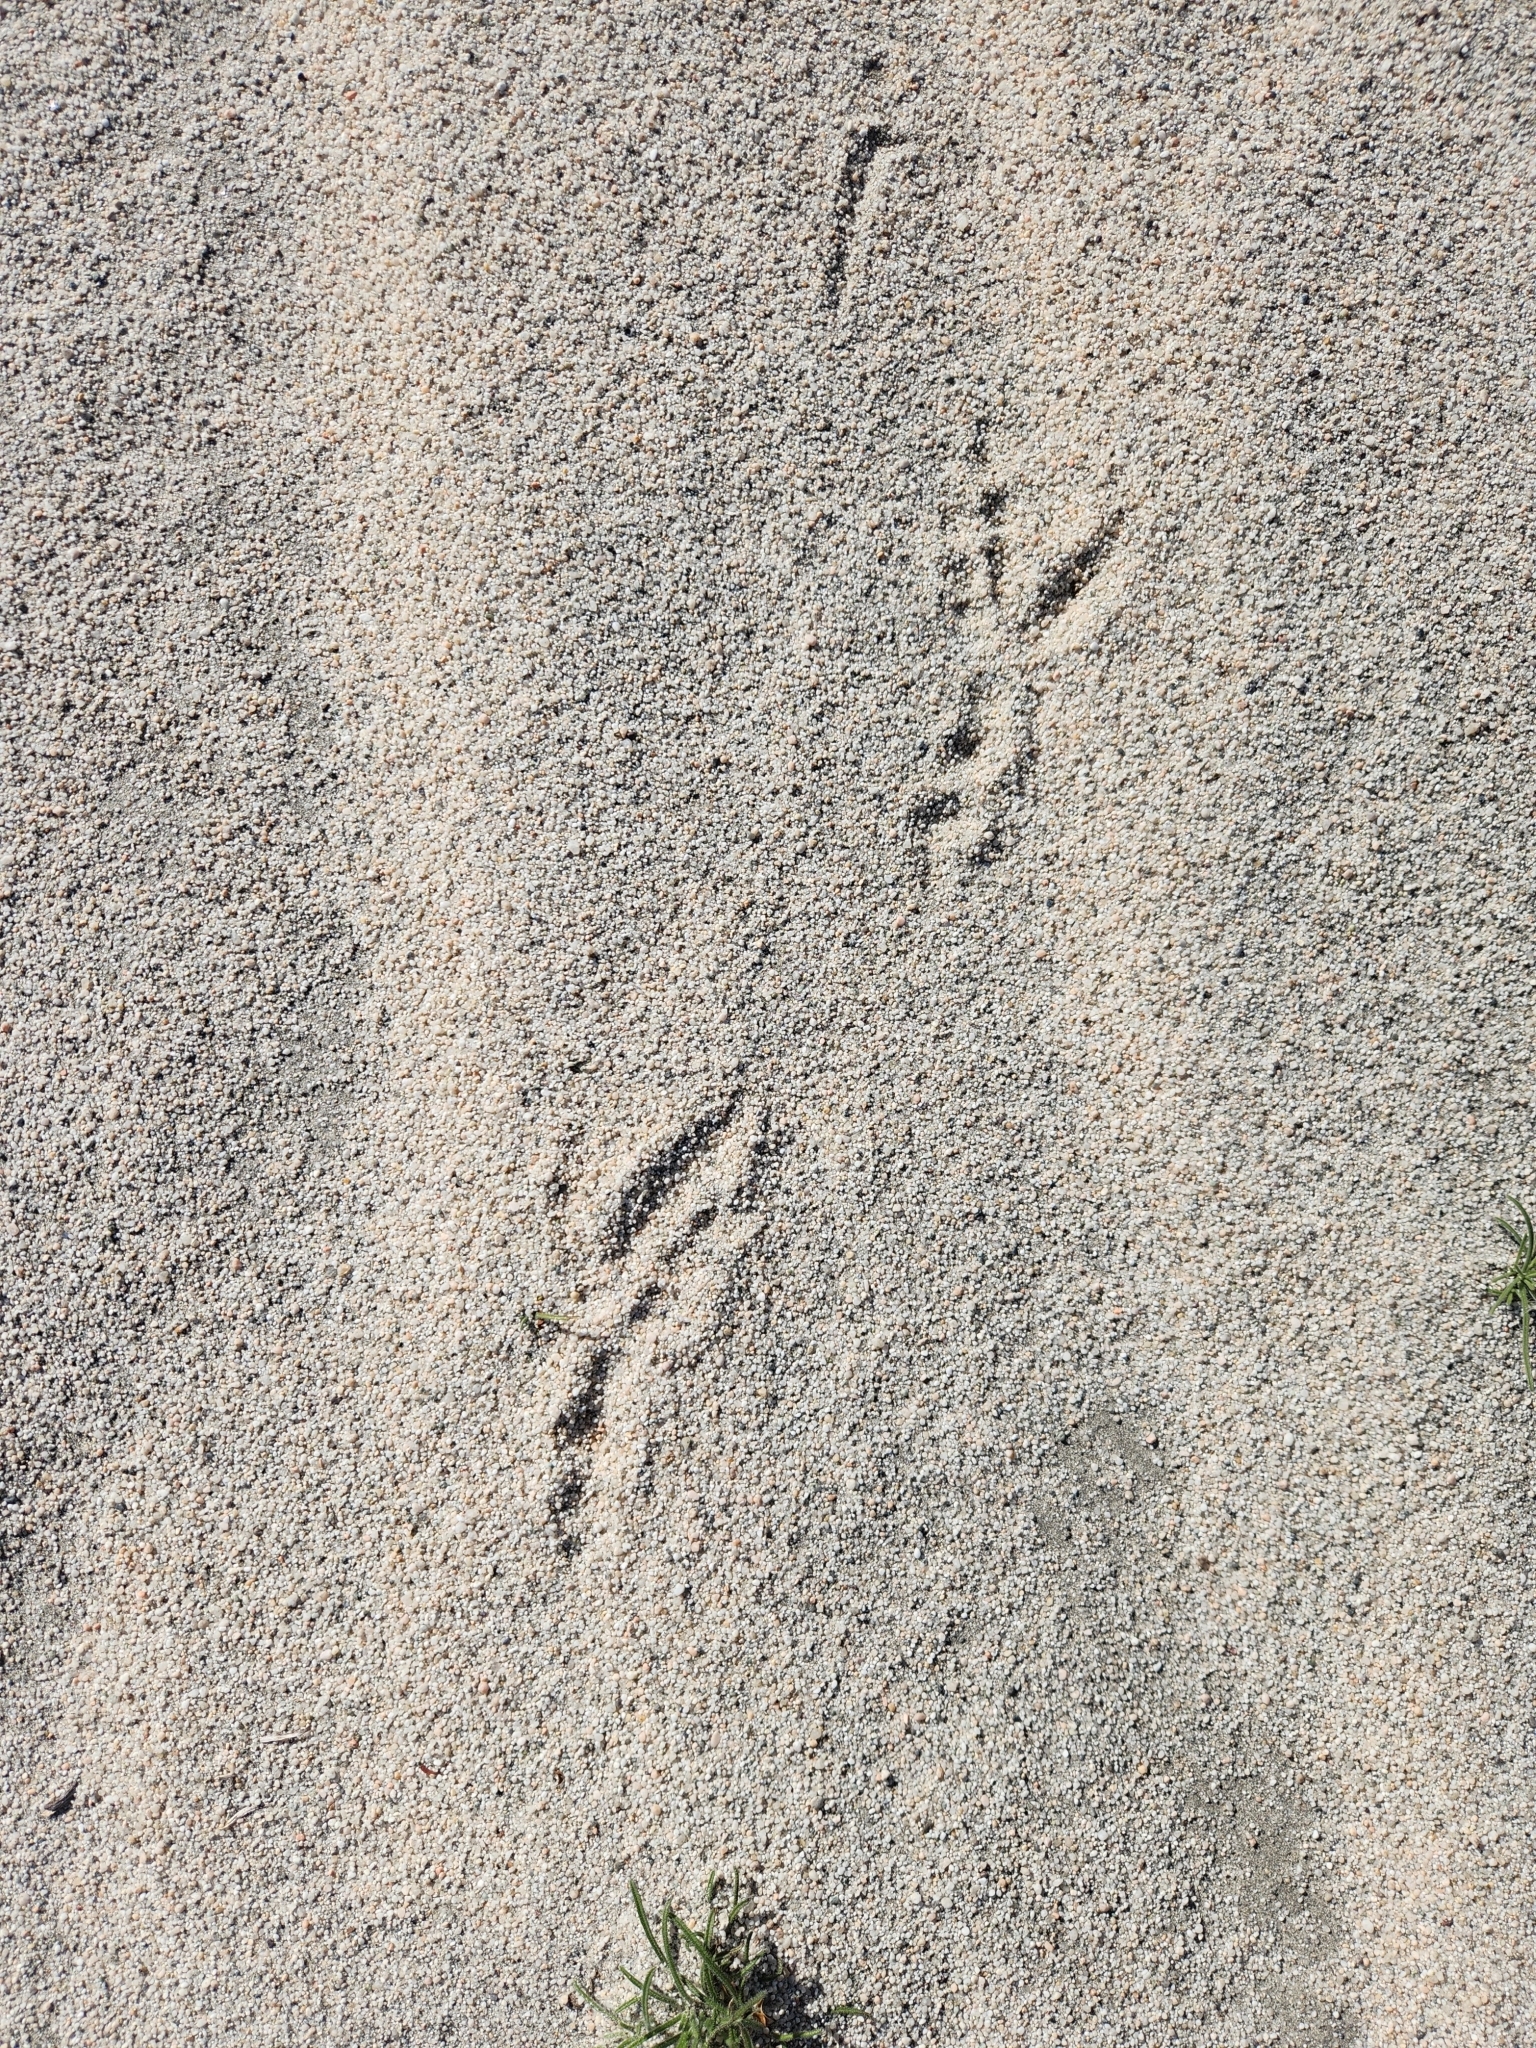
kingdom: Animalia
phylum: Chordata
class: Aves
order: Passeriformes
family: Corvidae
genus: Corvus
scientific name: Corvus corax
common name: Common raven
